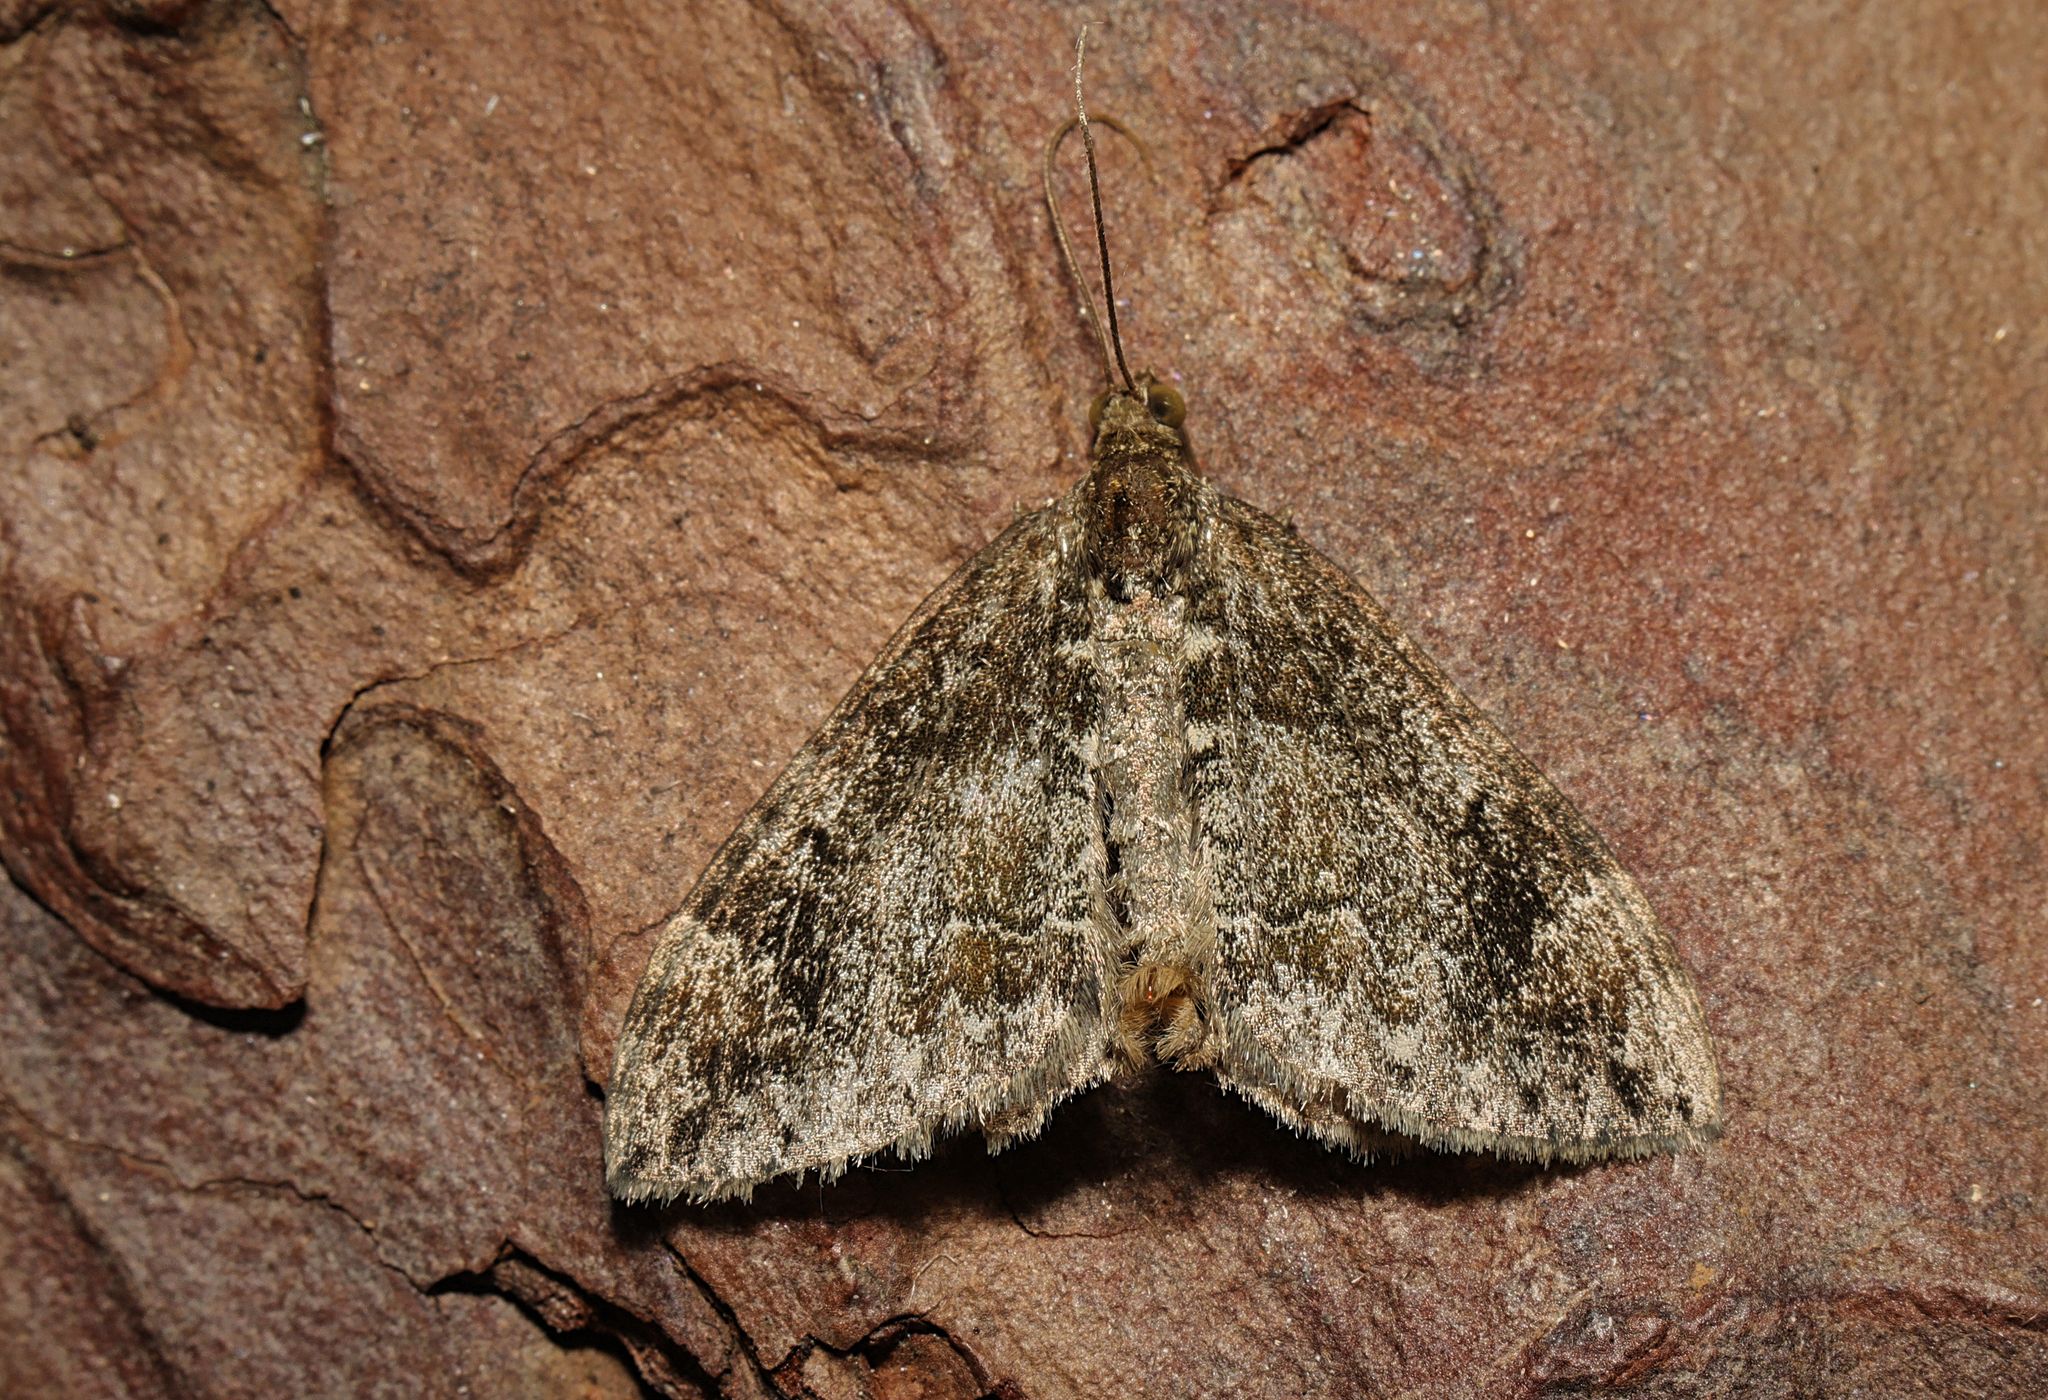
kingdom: Animalia
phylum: Arthropoda
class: Insecta
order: Lepidoptera
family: Geometridae
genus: Dysstroma
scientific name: Dysstroma truncata
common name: Common marbled carpet
